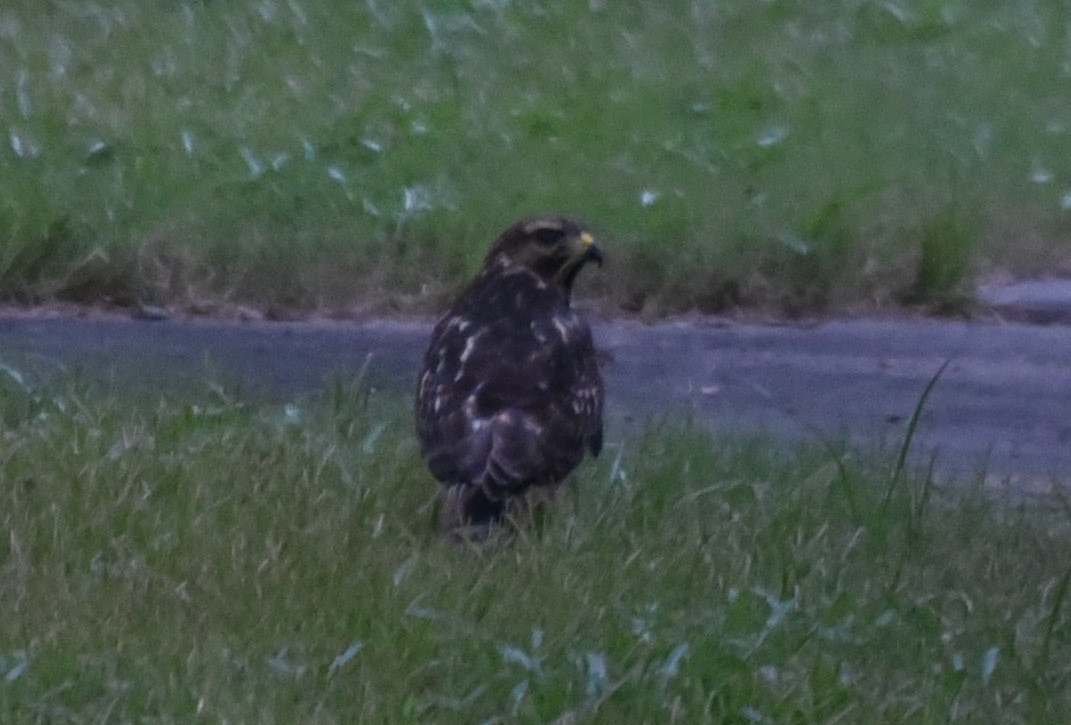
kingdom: Animalia
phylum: Chordata
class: Aves
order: Accipitriformes
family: Accipitridae
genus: Buteo
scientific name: Buteo platypterus
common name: Broad-winged hawk
